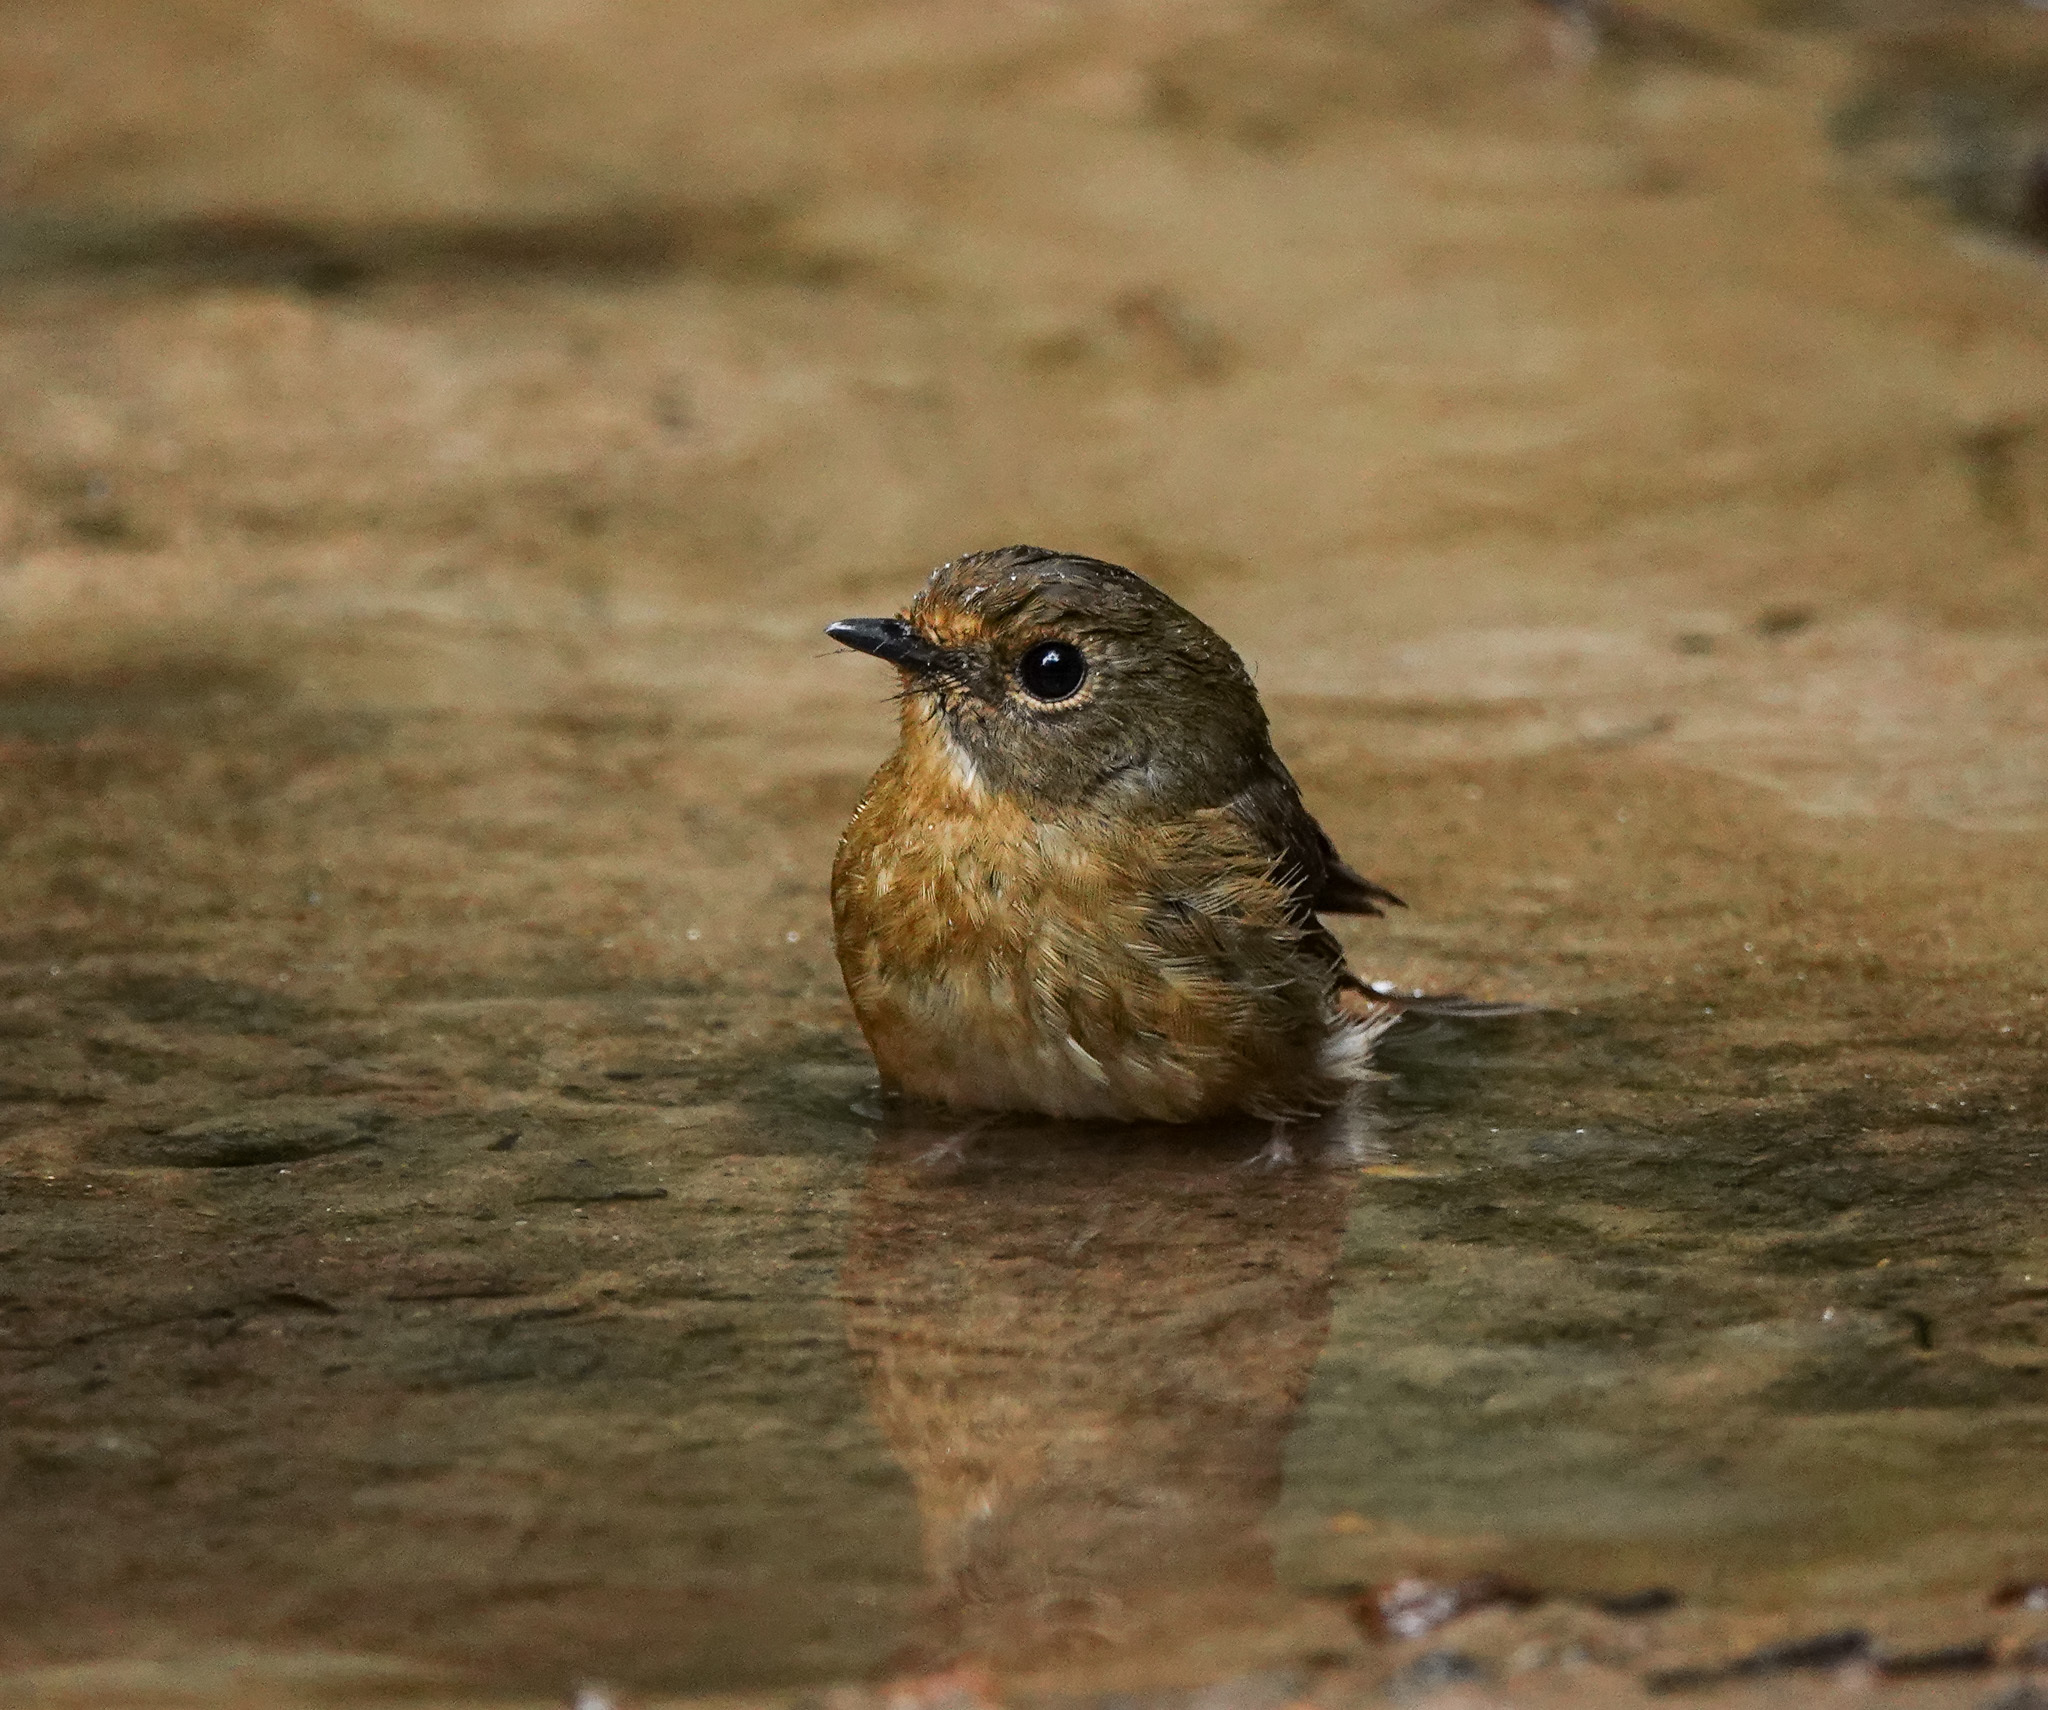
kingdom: Animalia
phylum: Chordata
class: Aves
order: Passeriformes
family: Muscicapidae
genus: Ficedula
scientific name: Ficedula hyperythra
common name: Snowy-browed flycatcher
